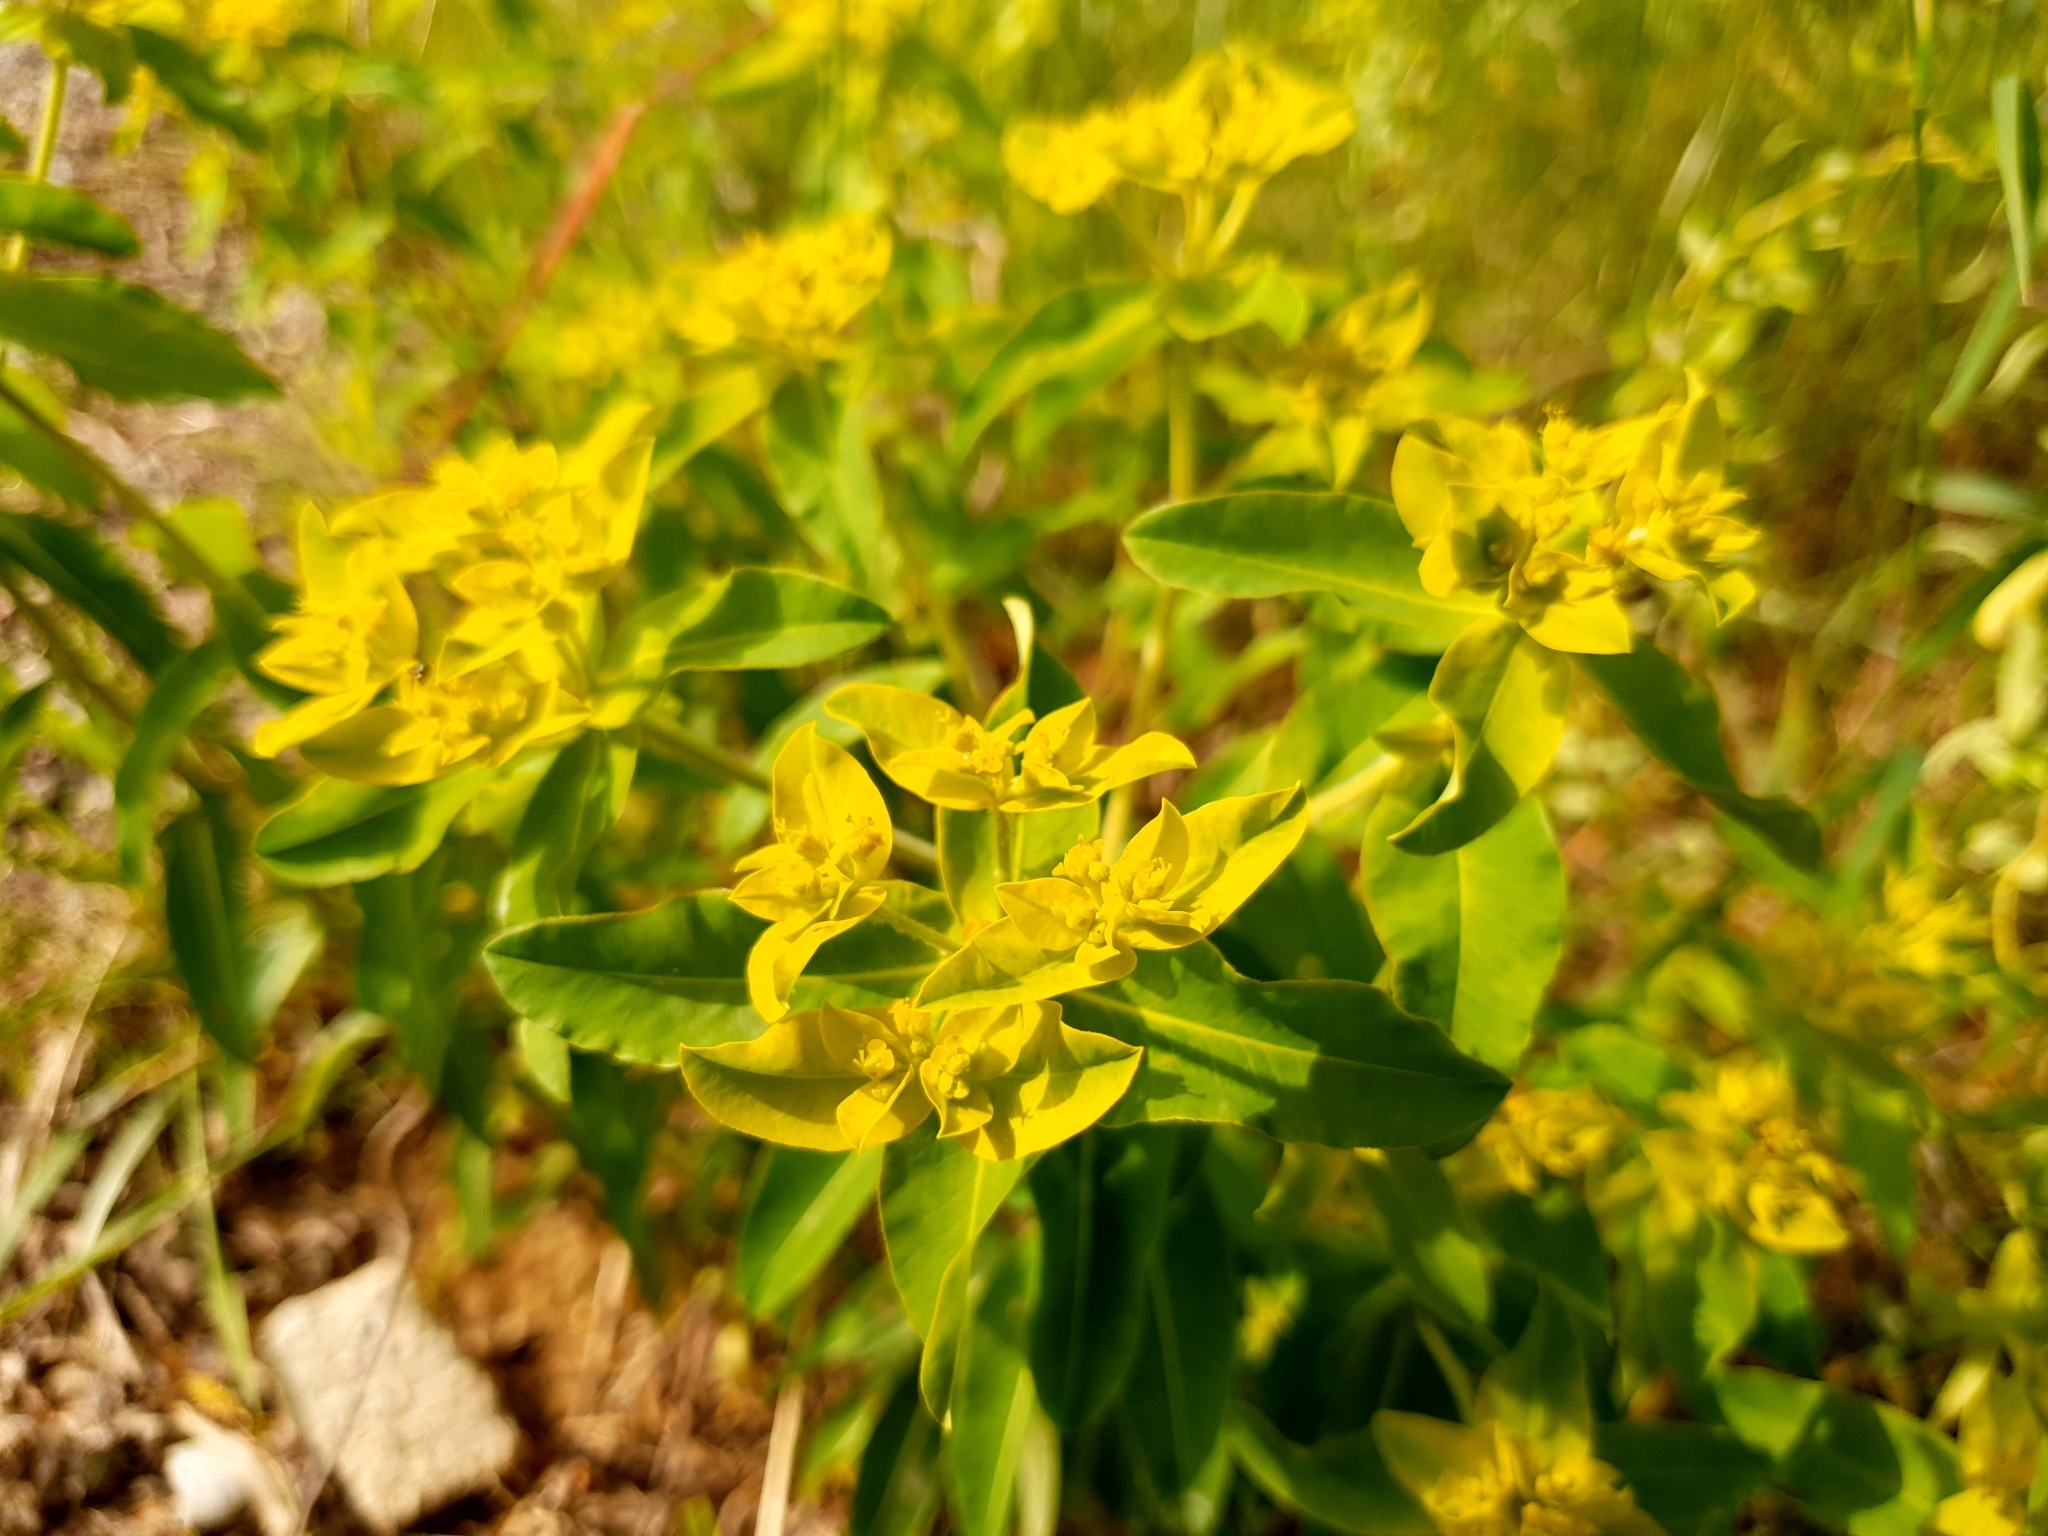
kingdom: Plantae
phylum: Tracheophyta
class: Magnoliopsida
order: Malpighiales
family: Euphorbiaceae
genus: Euphorbia
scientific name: Euphorbia epithymoides
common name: Cushion spurge
